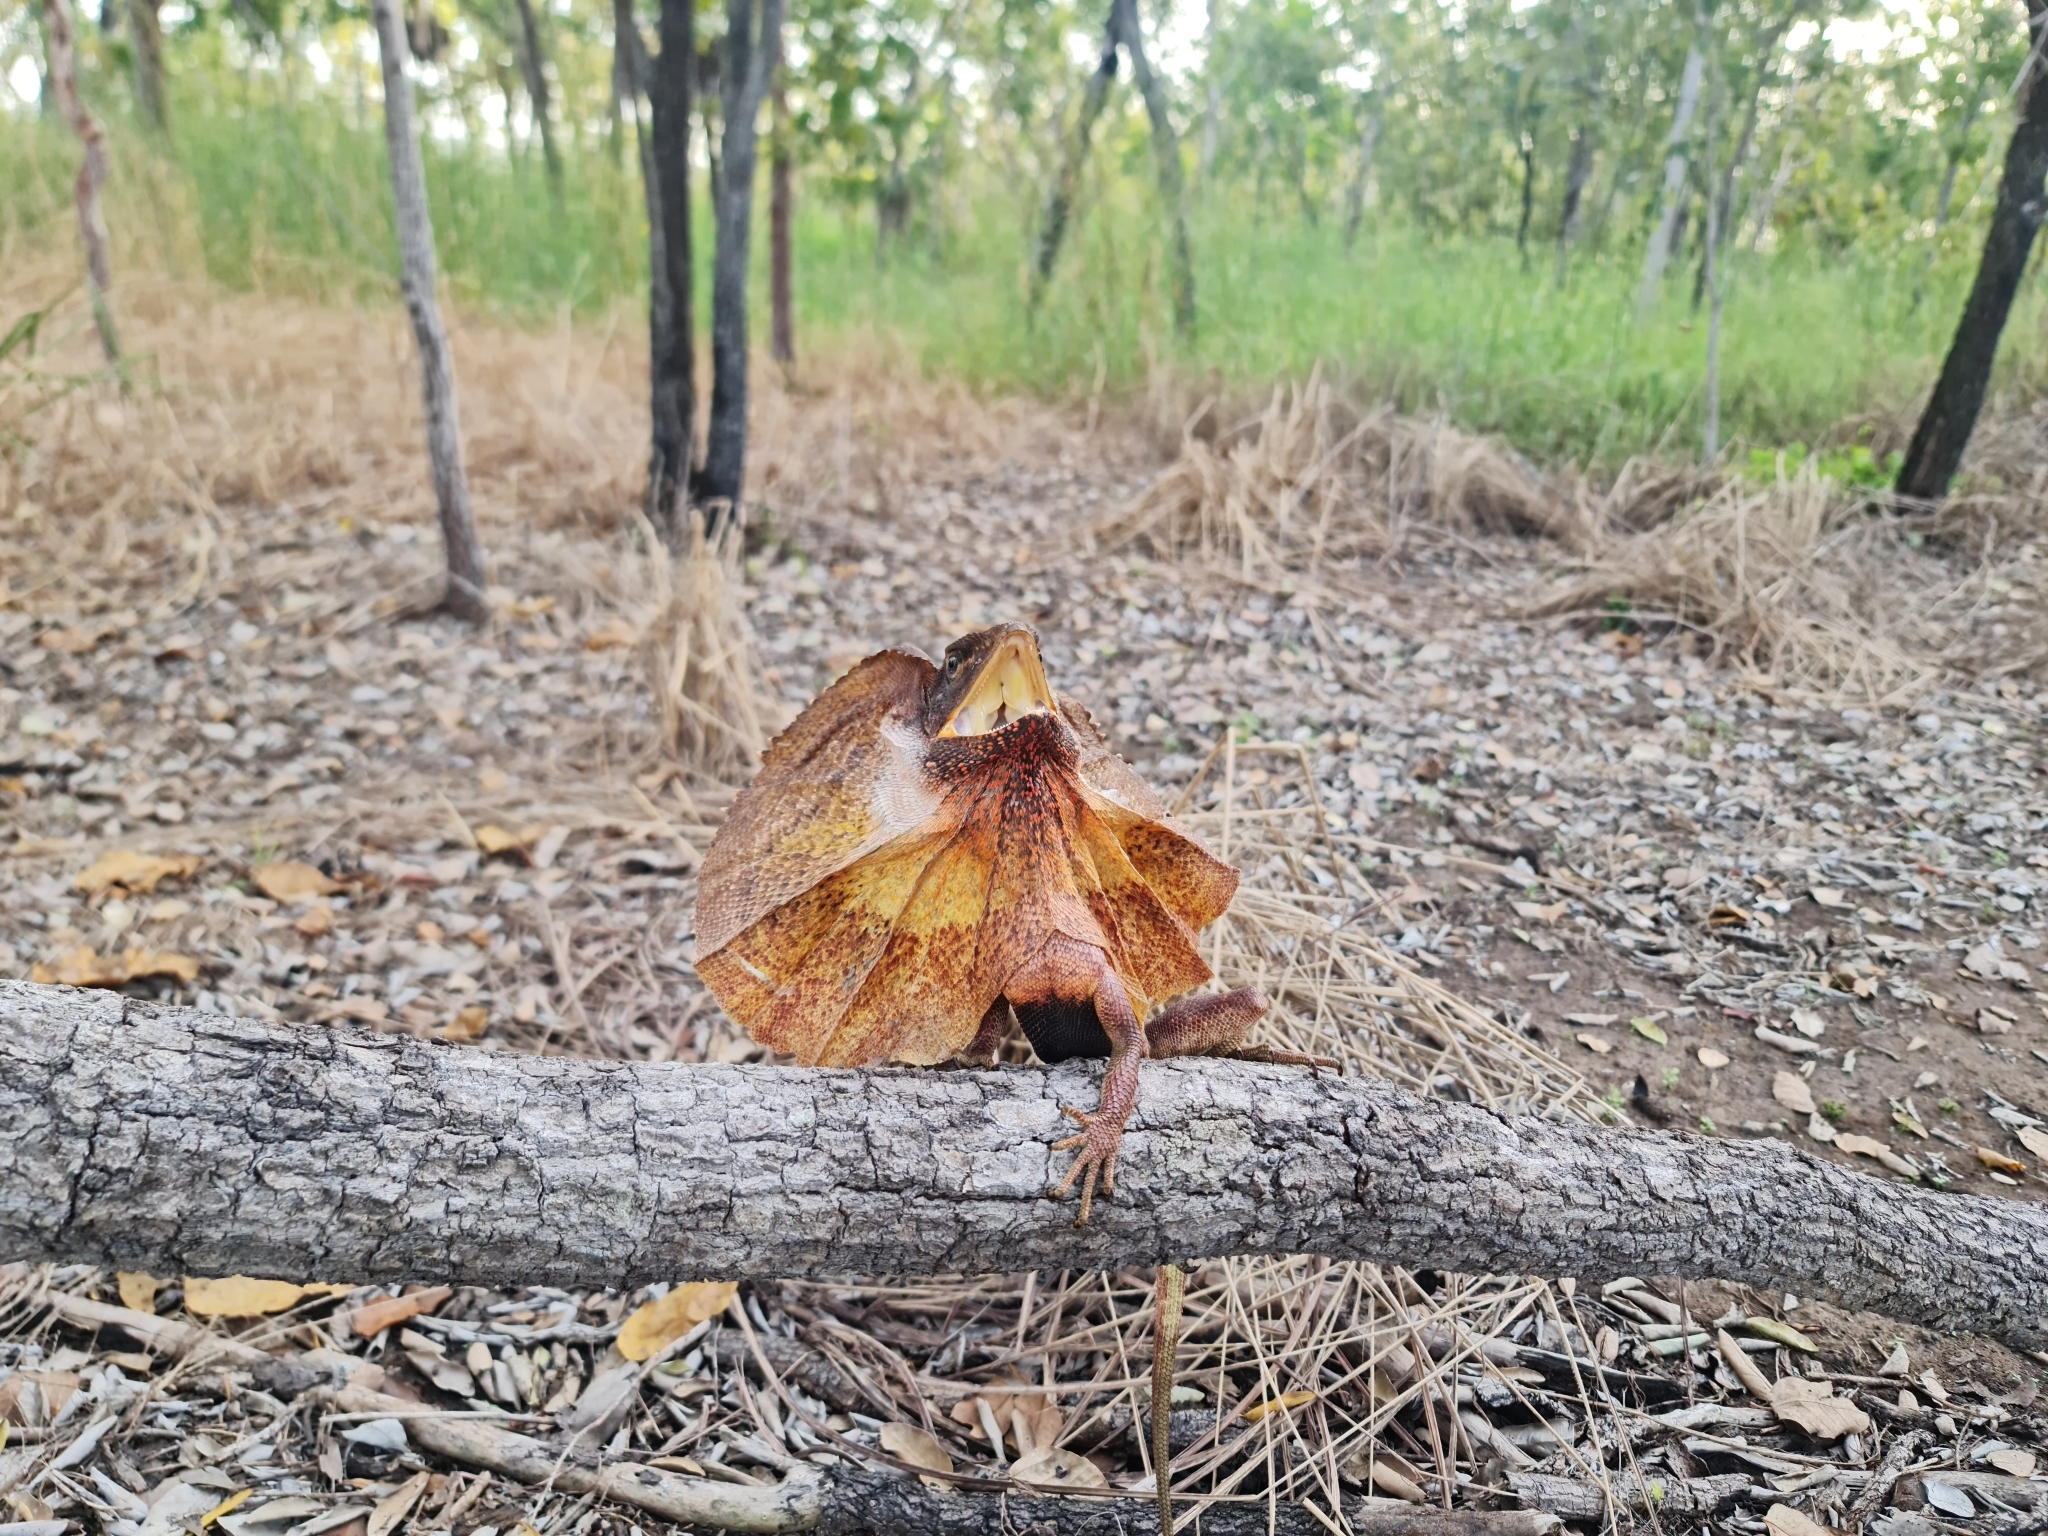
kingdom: Animalia
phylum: Chordata
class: Squamata
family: Agamidae
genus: Chlamydosaurus
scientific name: Chlamydosaurus kingii
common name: Frilled lizard
